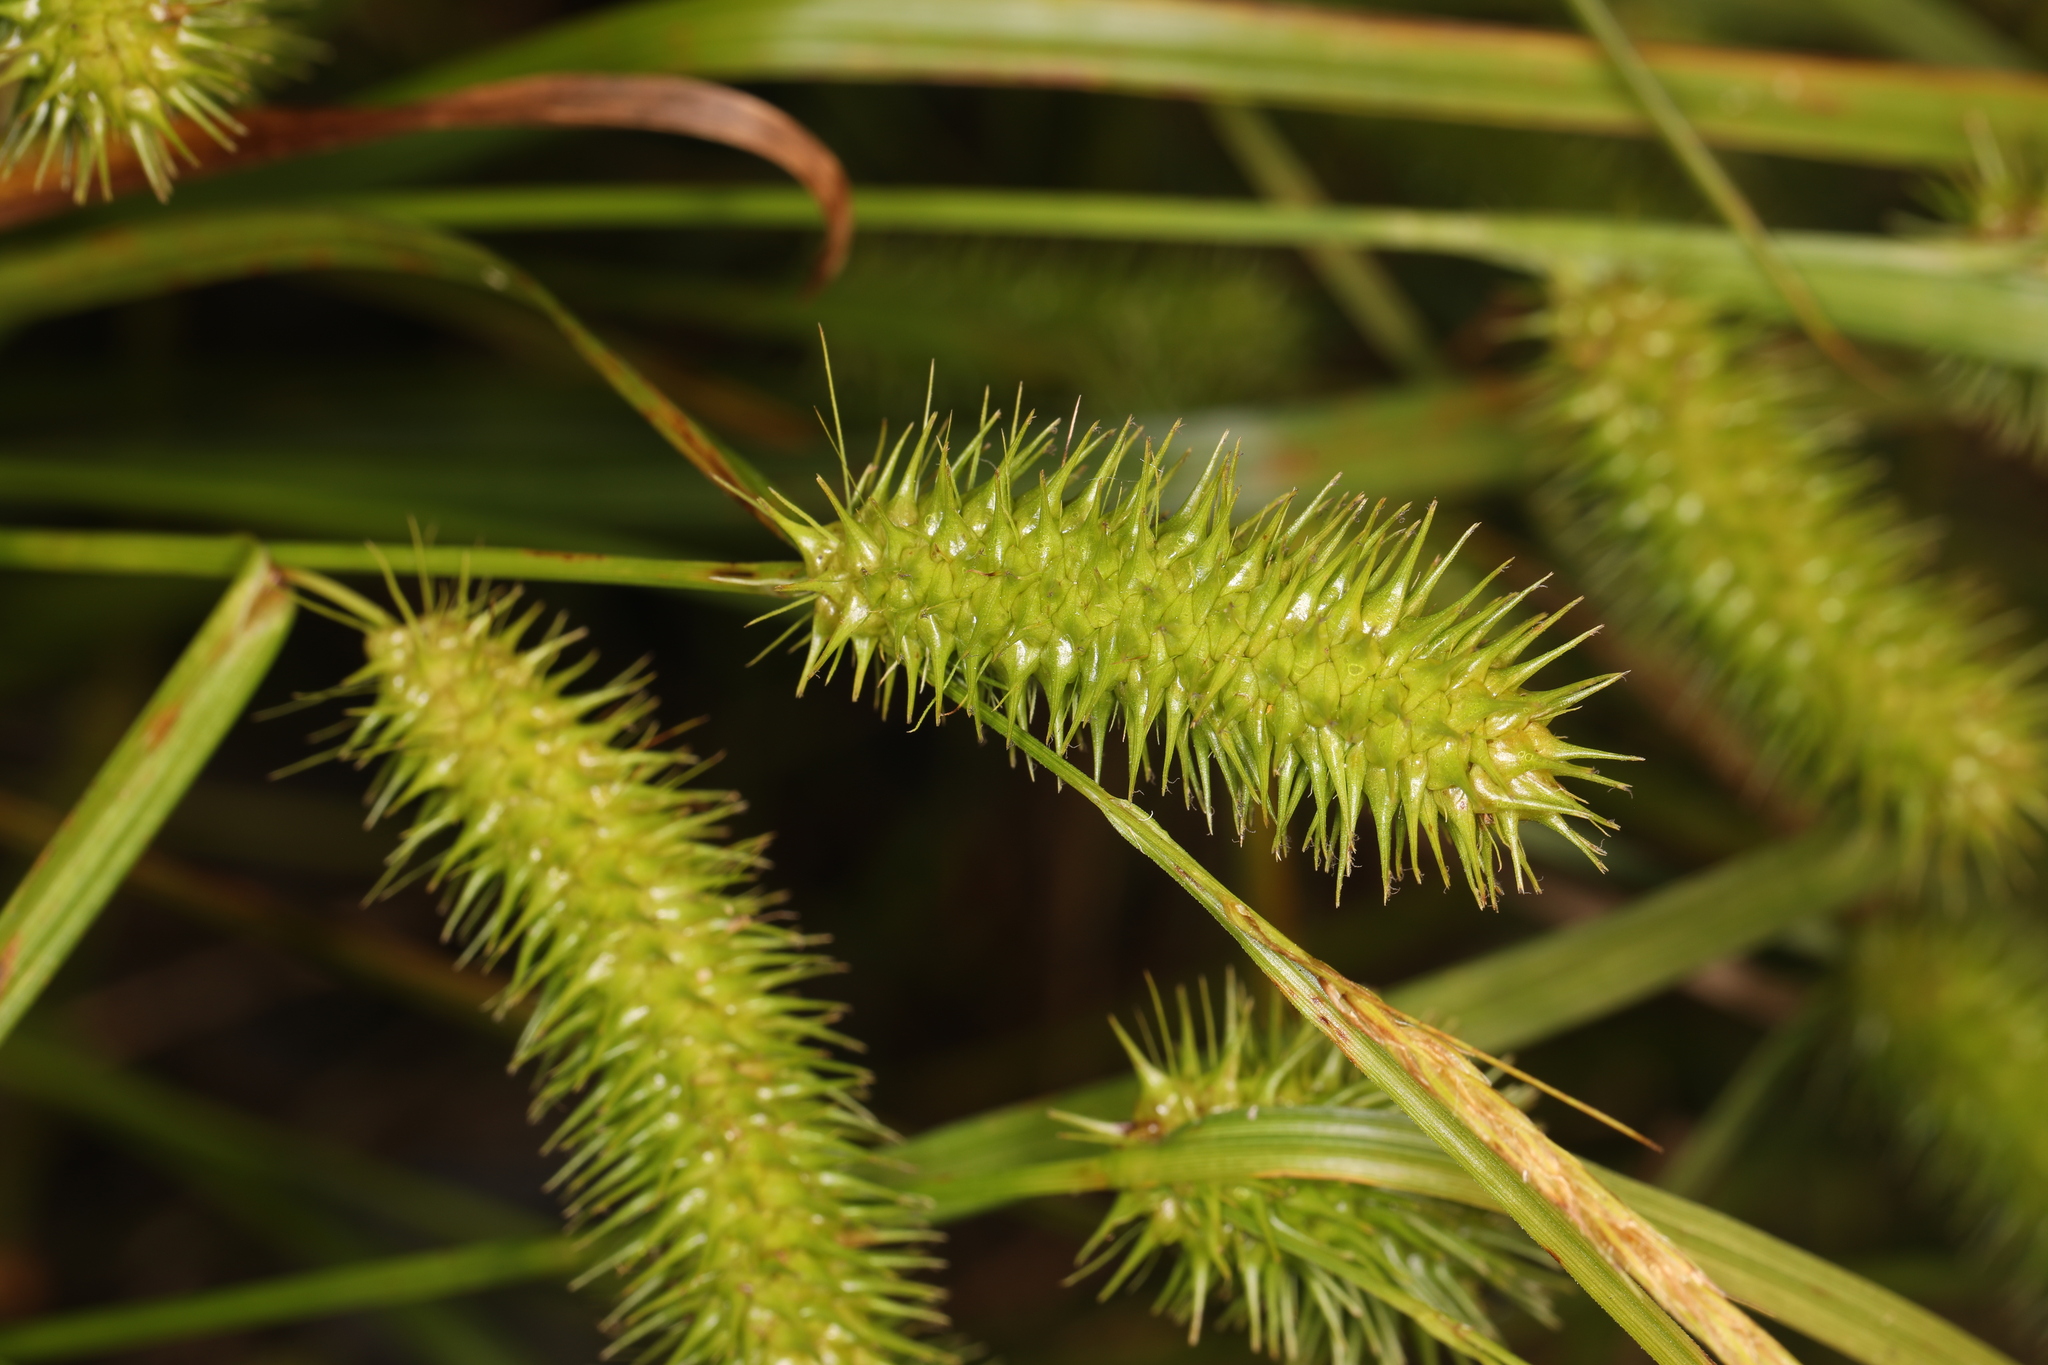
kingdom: Plantae
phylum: Tracheophyta
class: Liliopsida
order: Poales
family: Cyperaceae
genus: Carex
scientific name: Carex lurida
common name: Sallow sedge
